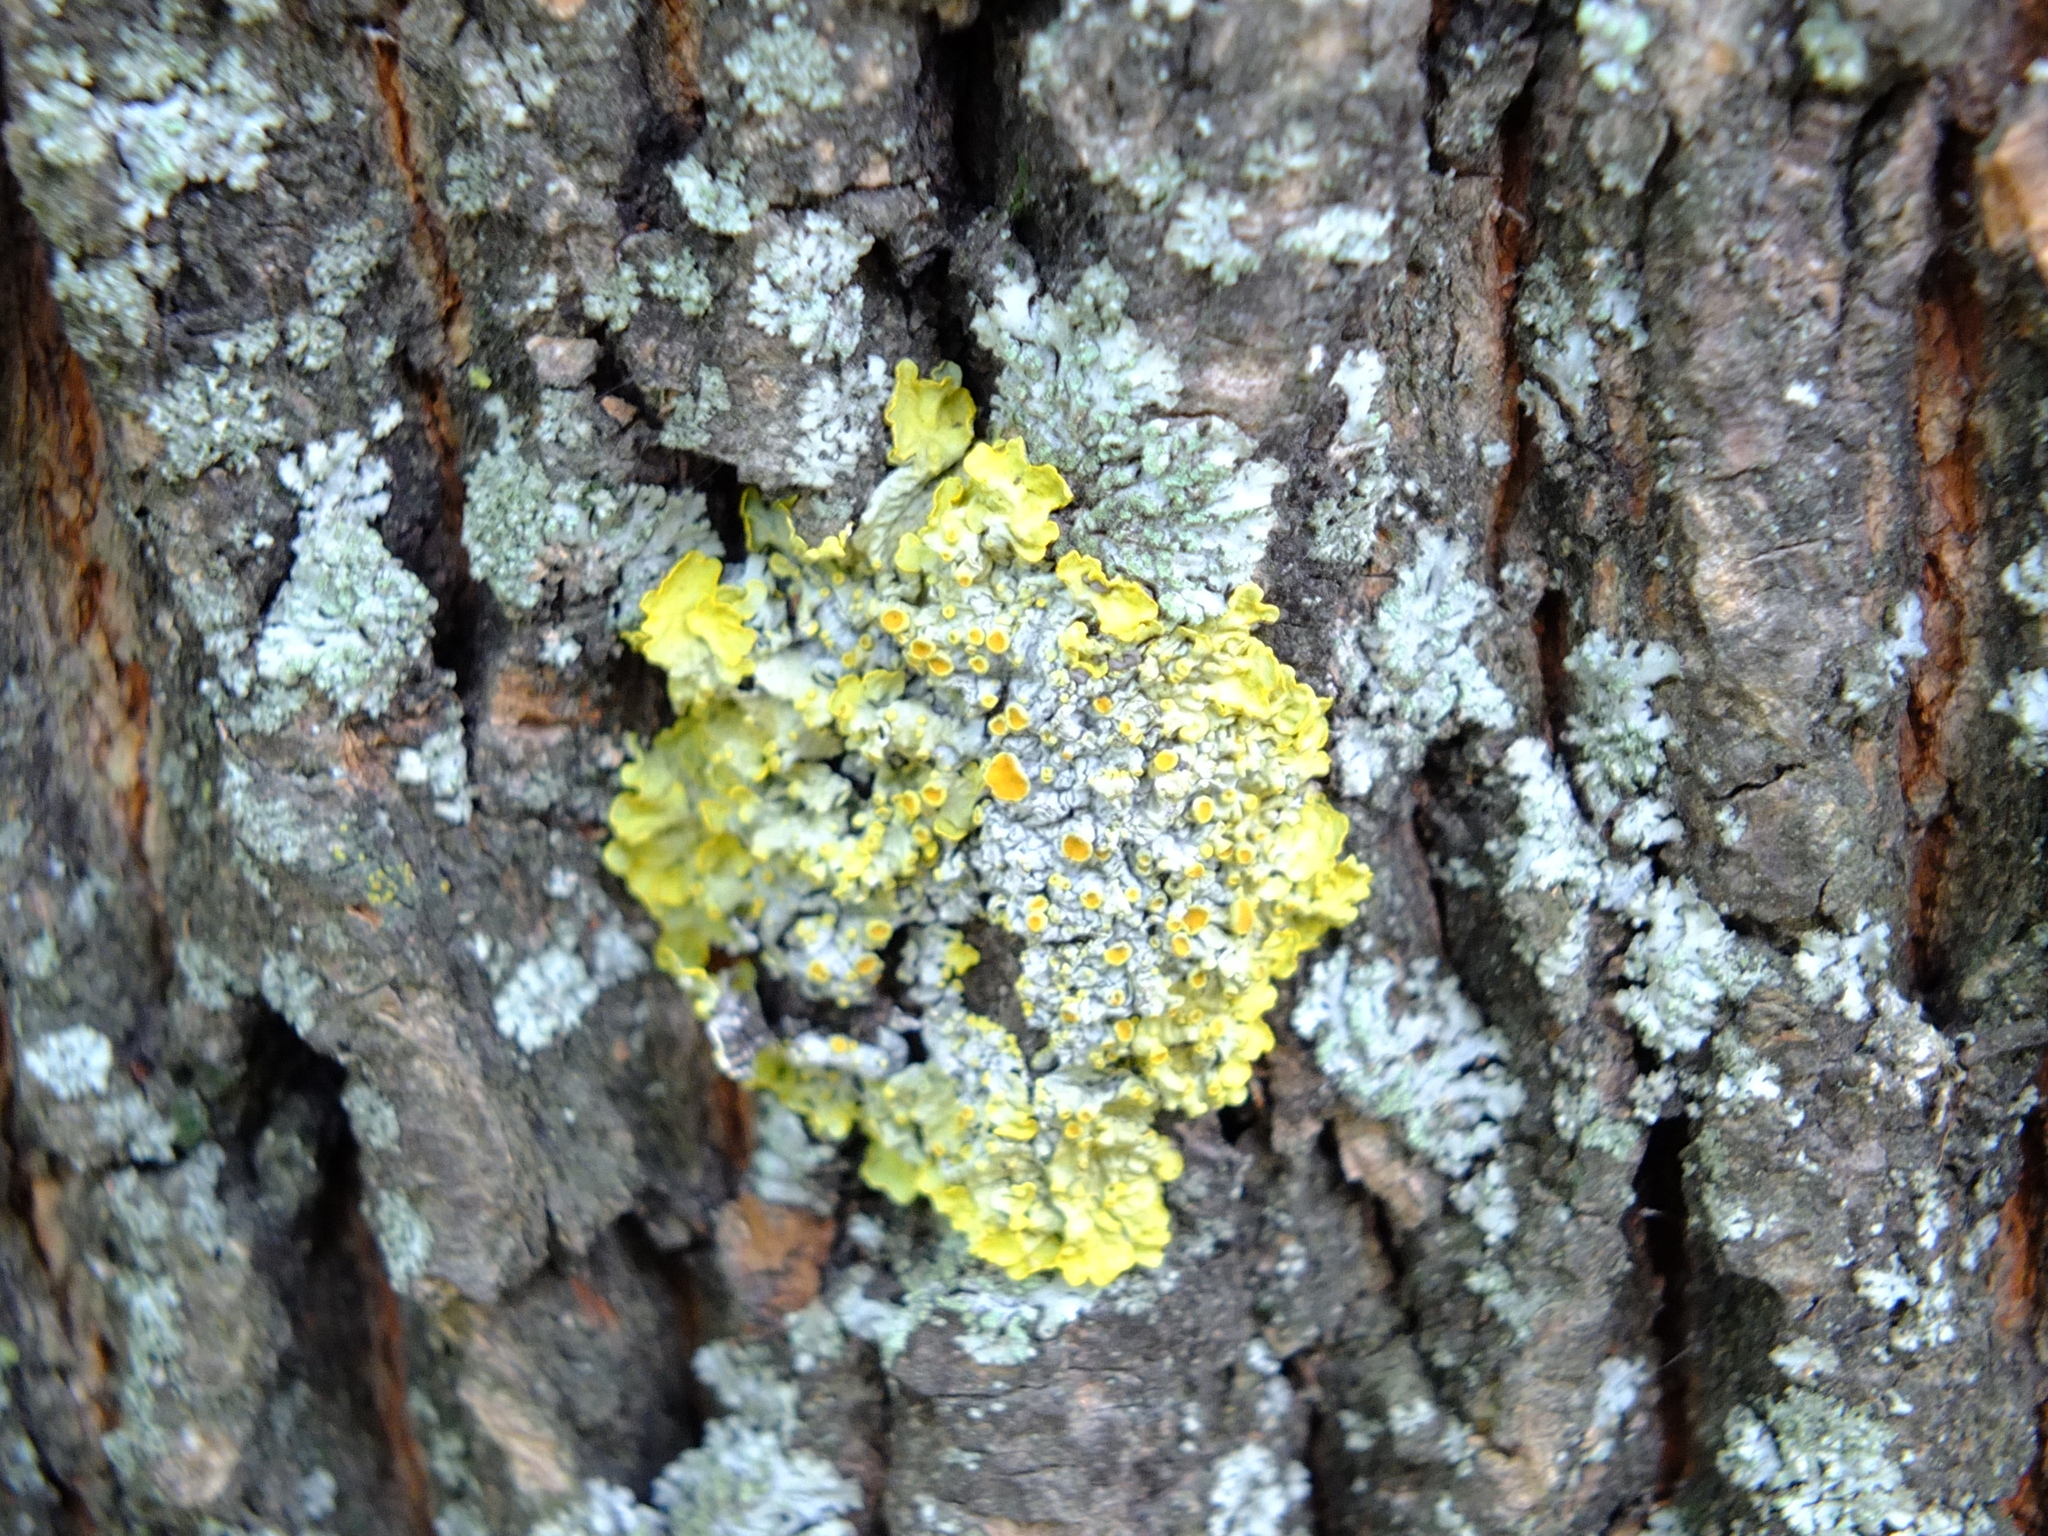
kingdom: Fungi
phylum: Ascomycota
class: Lecanoromycetes
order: Teloschistales
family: Teloschistaceae
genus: Xanthoria
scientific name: Xanthoria parietina
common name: Common orange lichen
